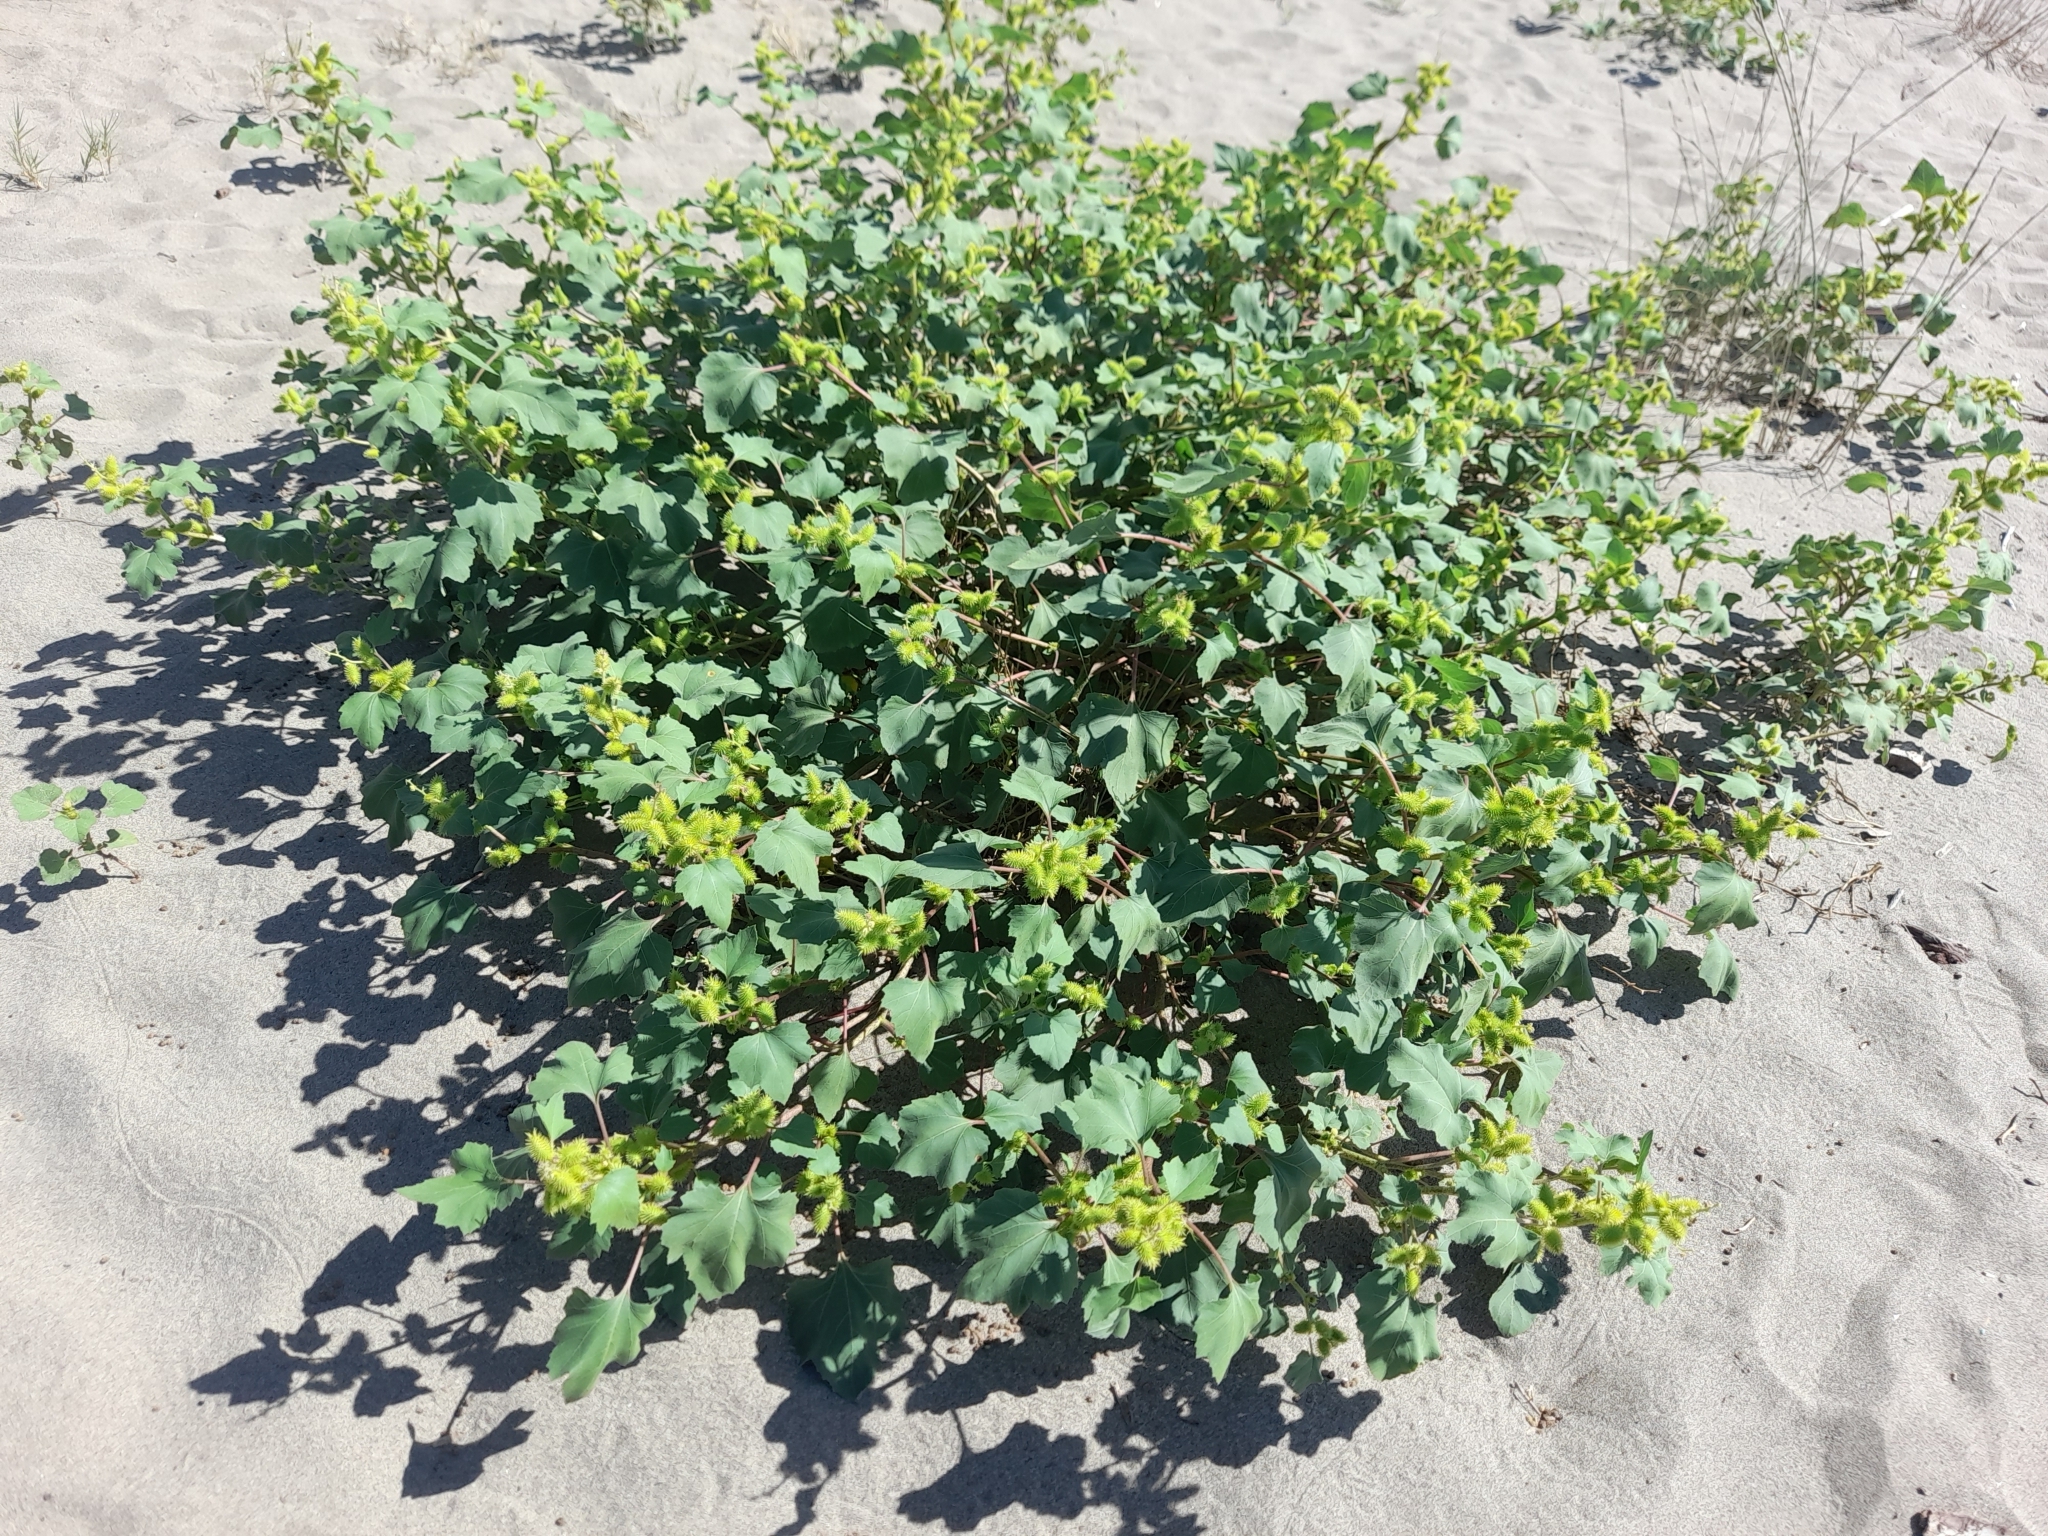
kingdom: Plantae
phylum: Tracheophyta
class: Magnoliopsida
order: Asterales
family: Asteraceae
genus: Xanthium
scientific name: Xanthium orientale
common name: Californian burr
